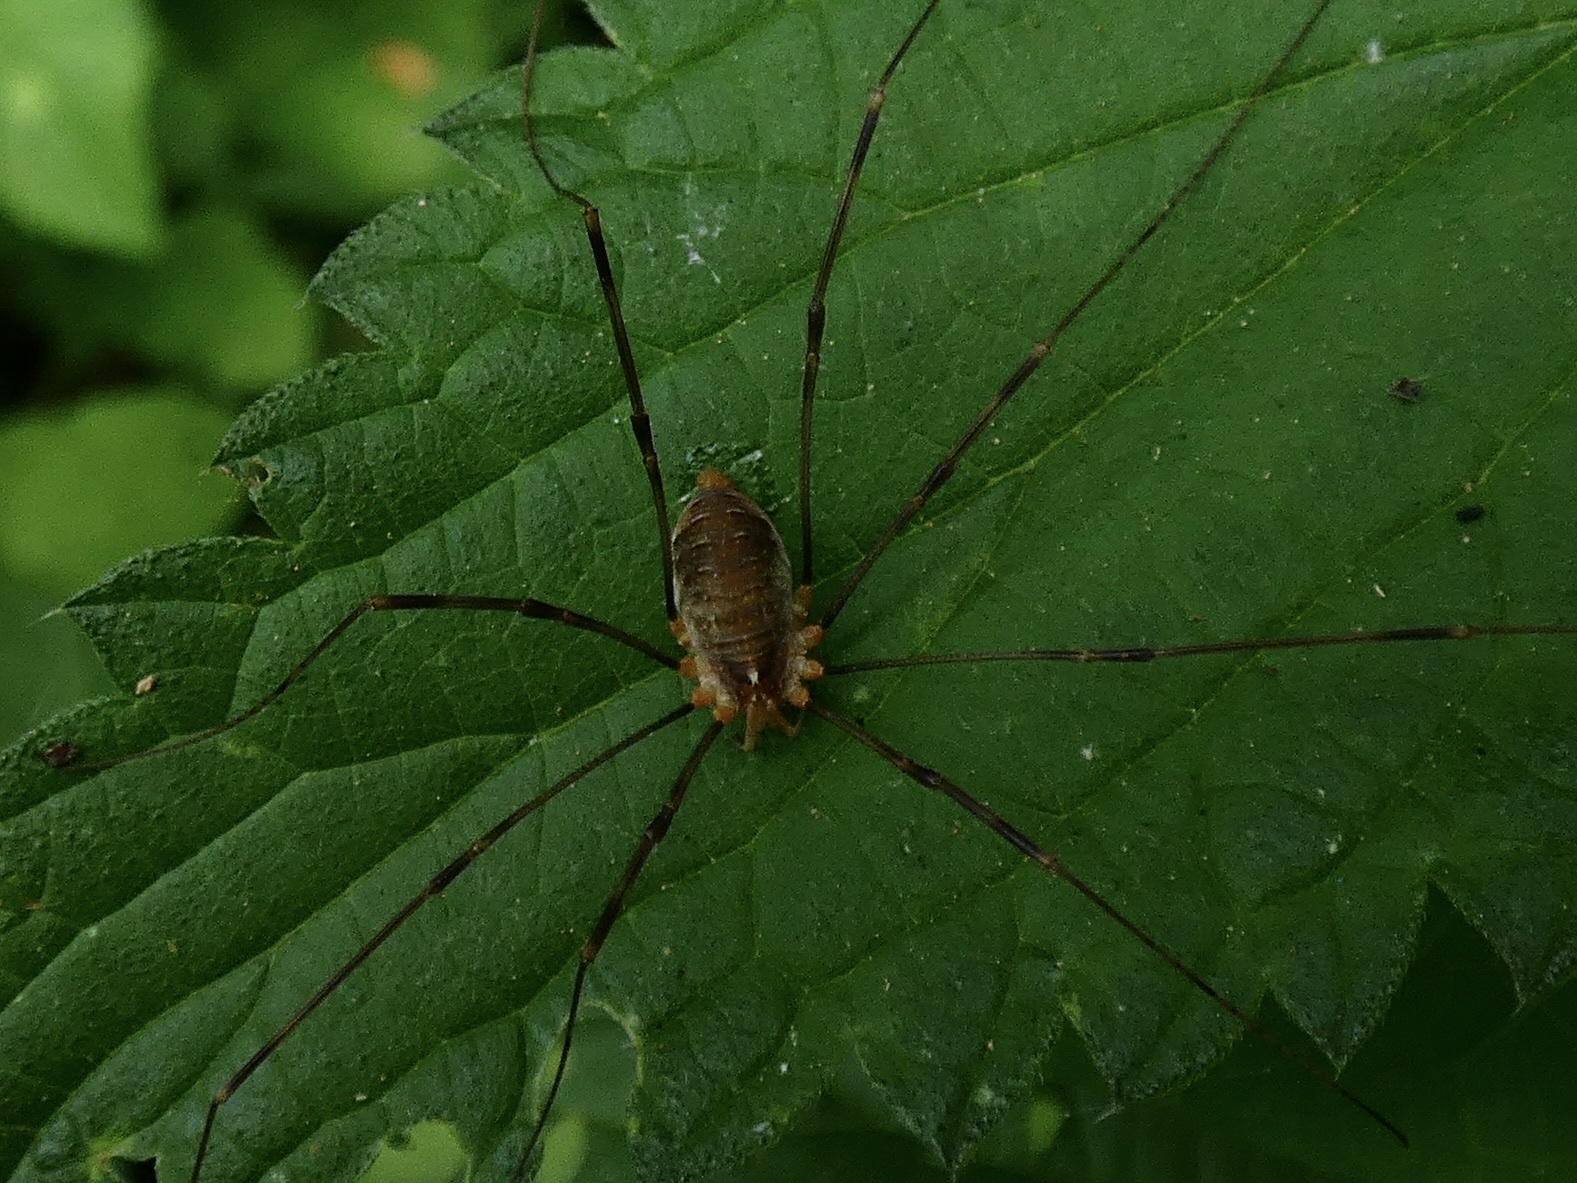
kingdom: Animalia
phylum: Arthropoda
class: Arachnida
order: Opiliones
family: Phalangiidae
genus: Opilio
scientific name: Opilio canestrinii
